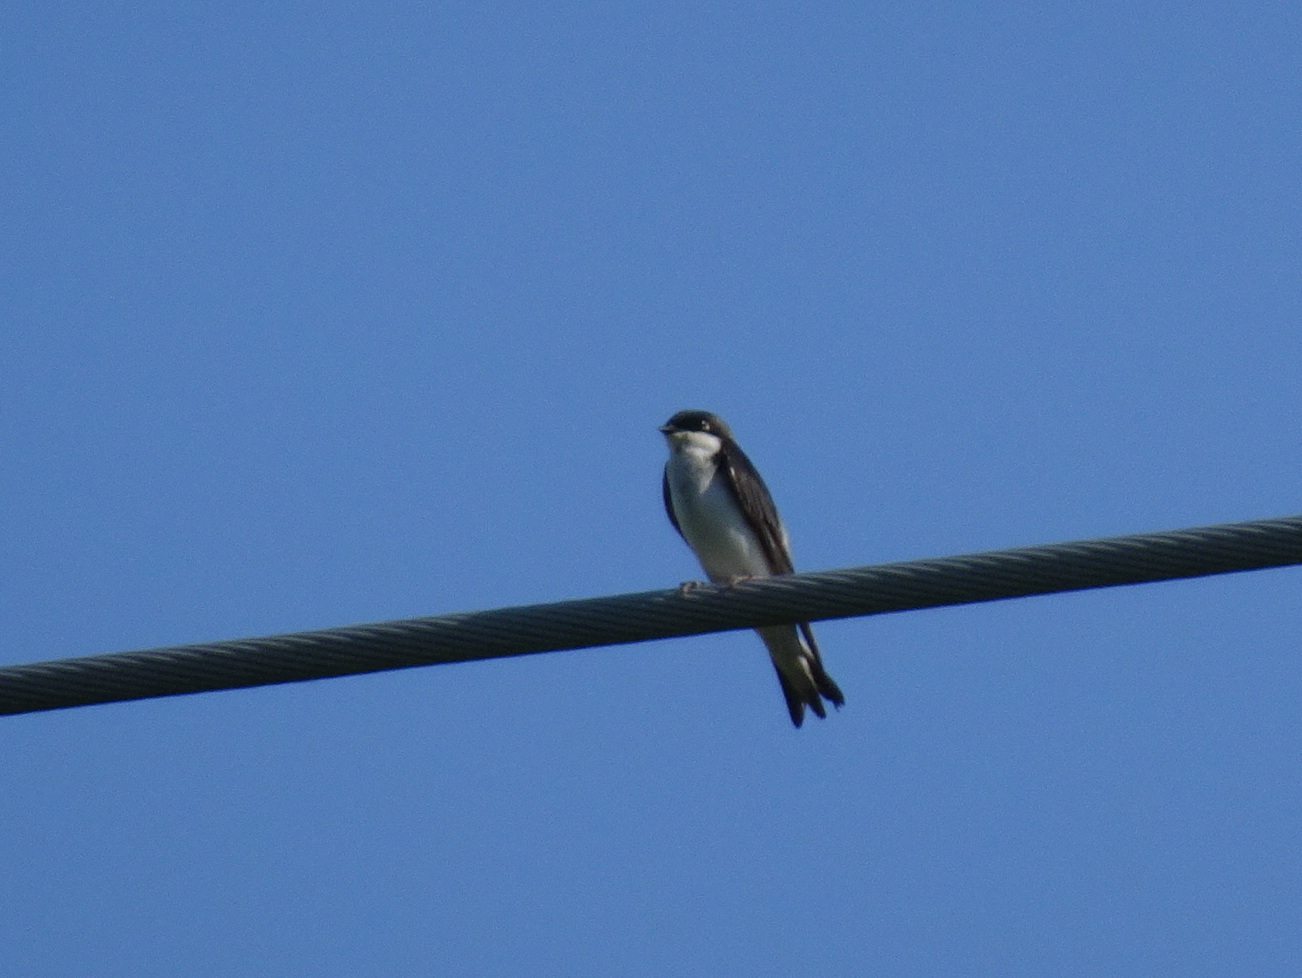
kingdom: Animalia
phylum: Chordata
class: Aves
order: Passeriformes
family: Hirundinidae
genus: Tachycineta
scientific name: Tachycineta bicolor
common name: Tree swallow
